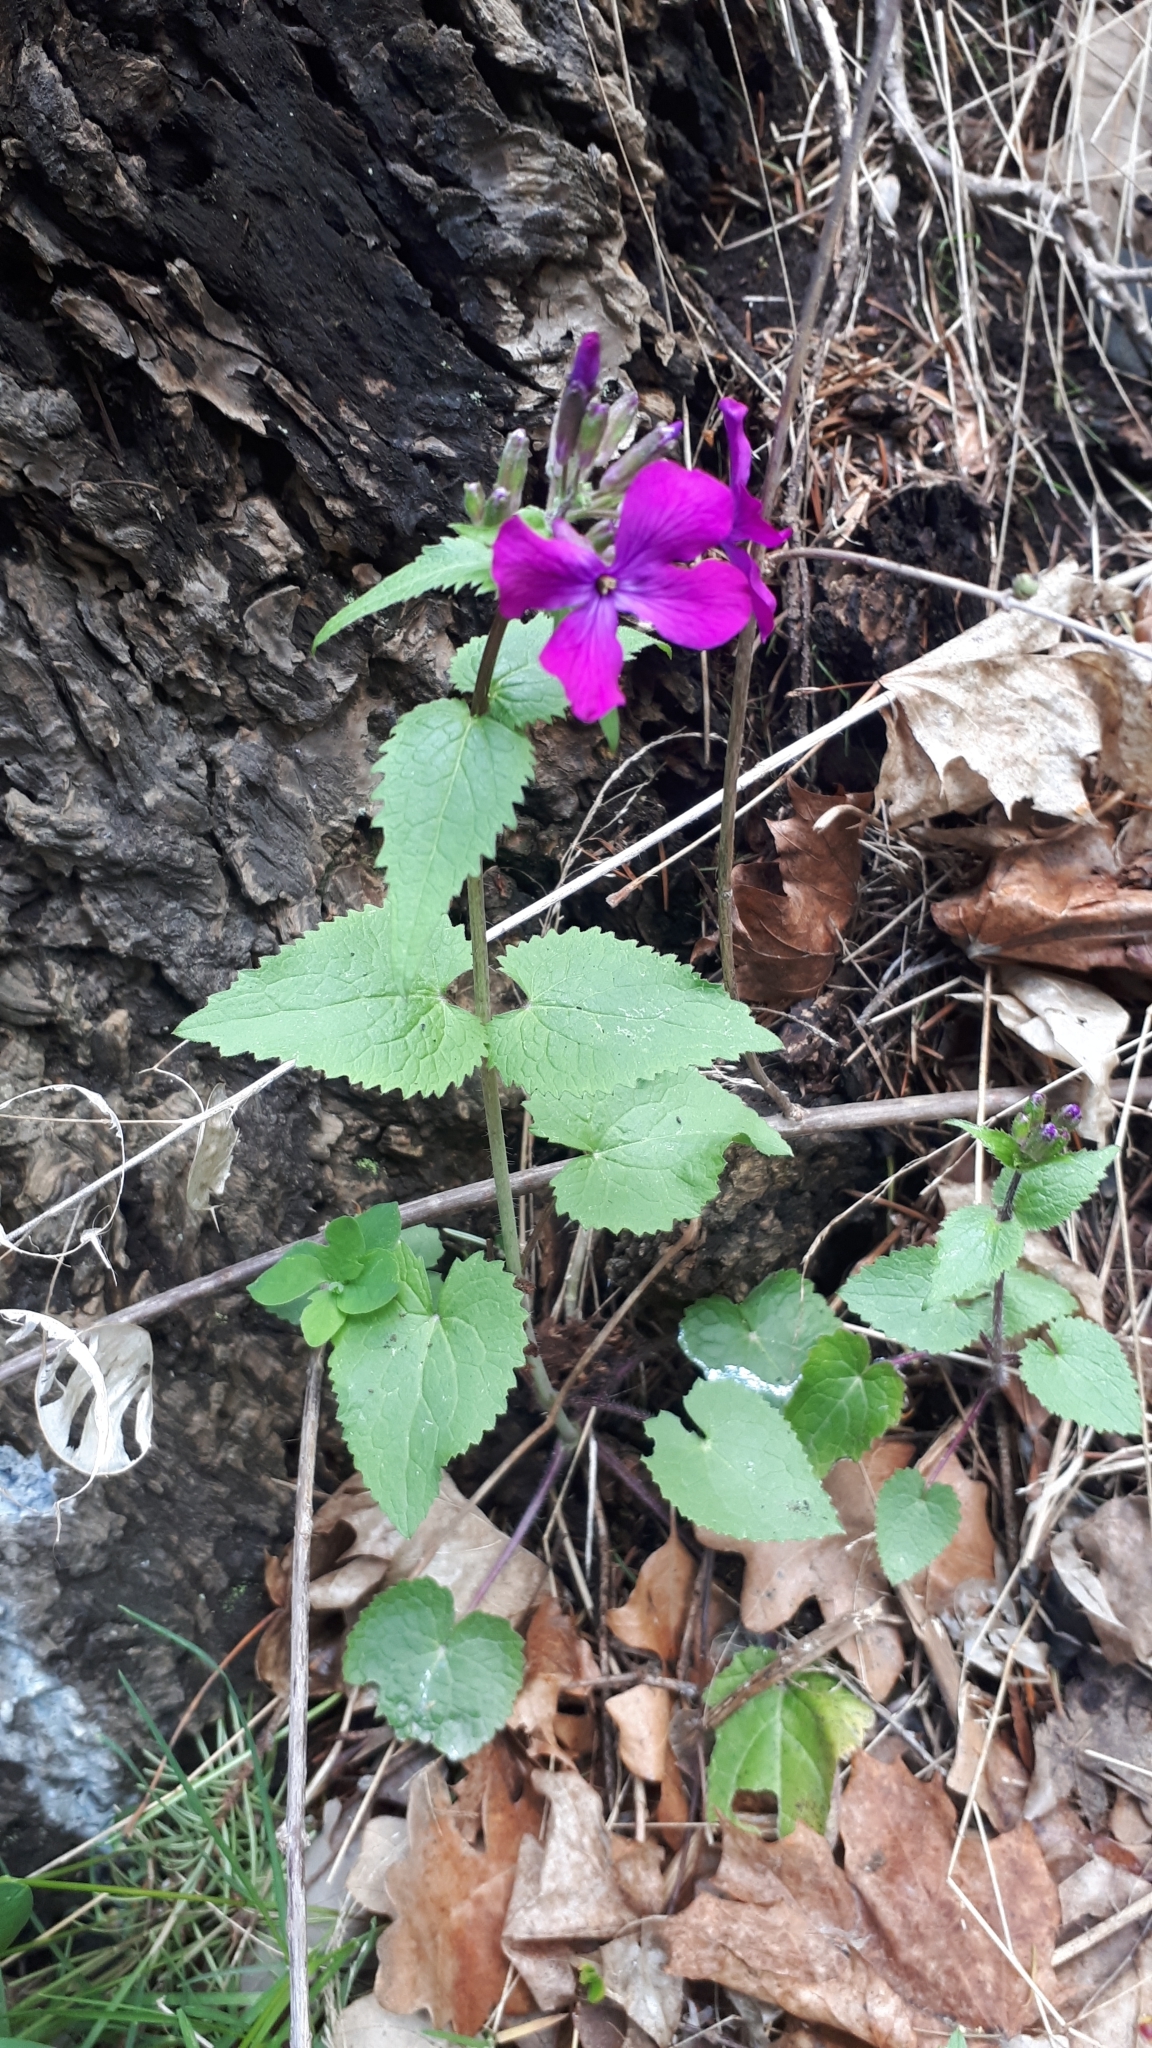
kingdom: Plantae
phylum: Tracheophyta
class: Magnoliopsida
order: Brassicales
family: Brassicaceae
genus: Lunaria
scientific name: Lunaria annua
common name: Honesty
